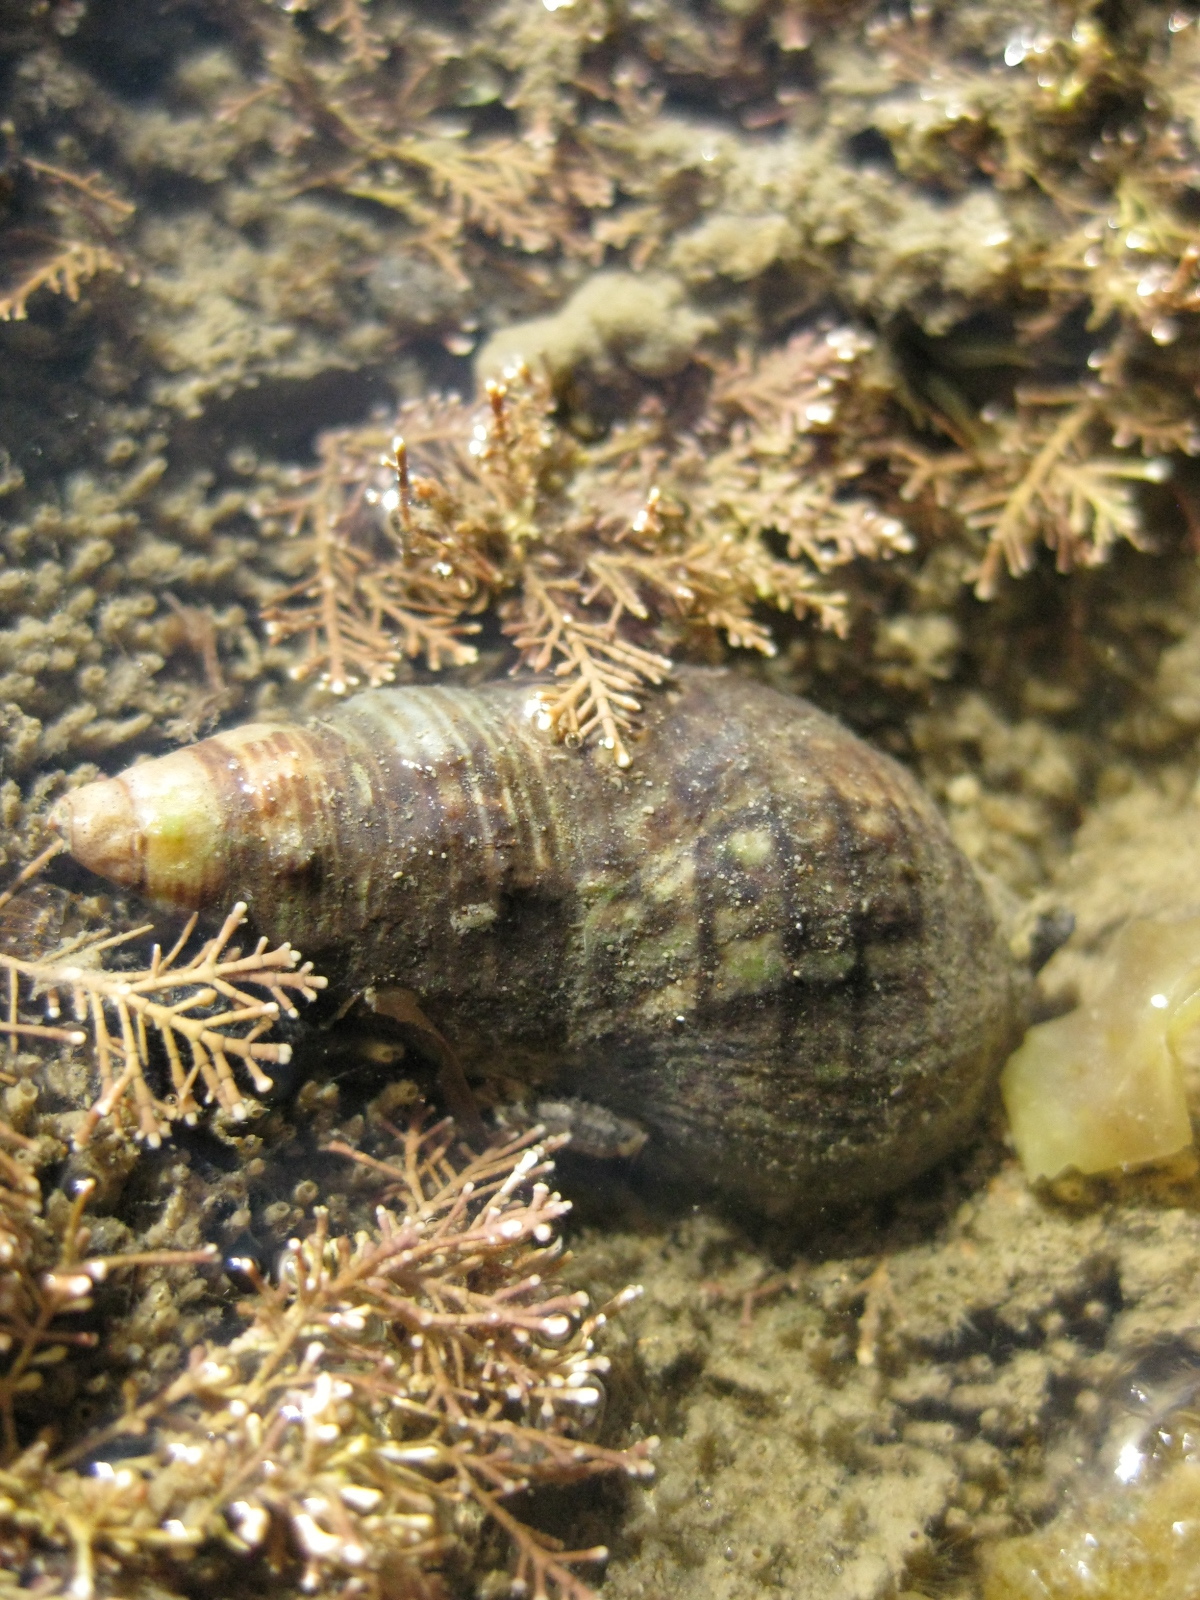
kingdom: Animalia
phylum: Mollusca
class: Gastropoda
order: Neogastropoda
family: Cominellidae
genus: Cominella
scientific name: Cominella virgata
